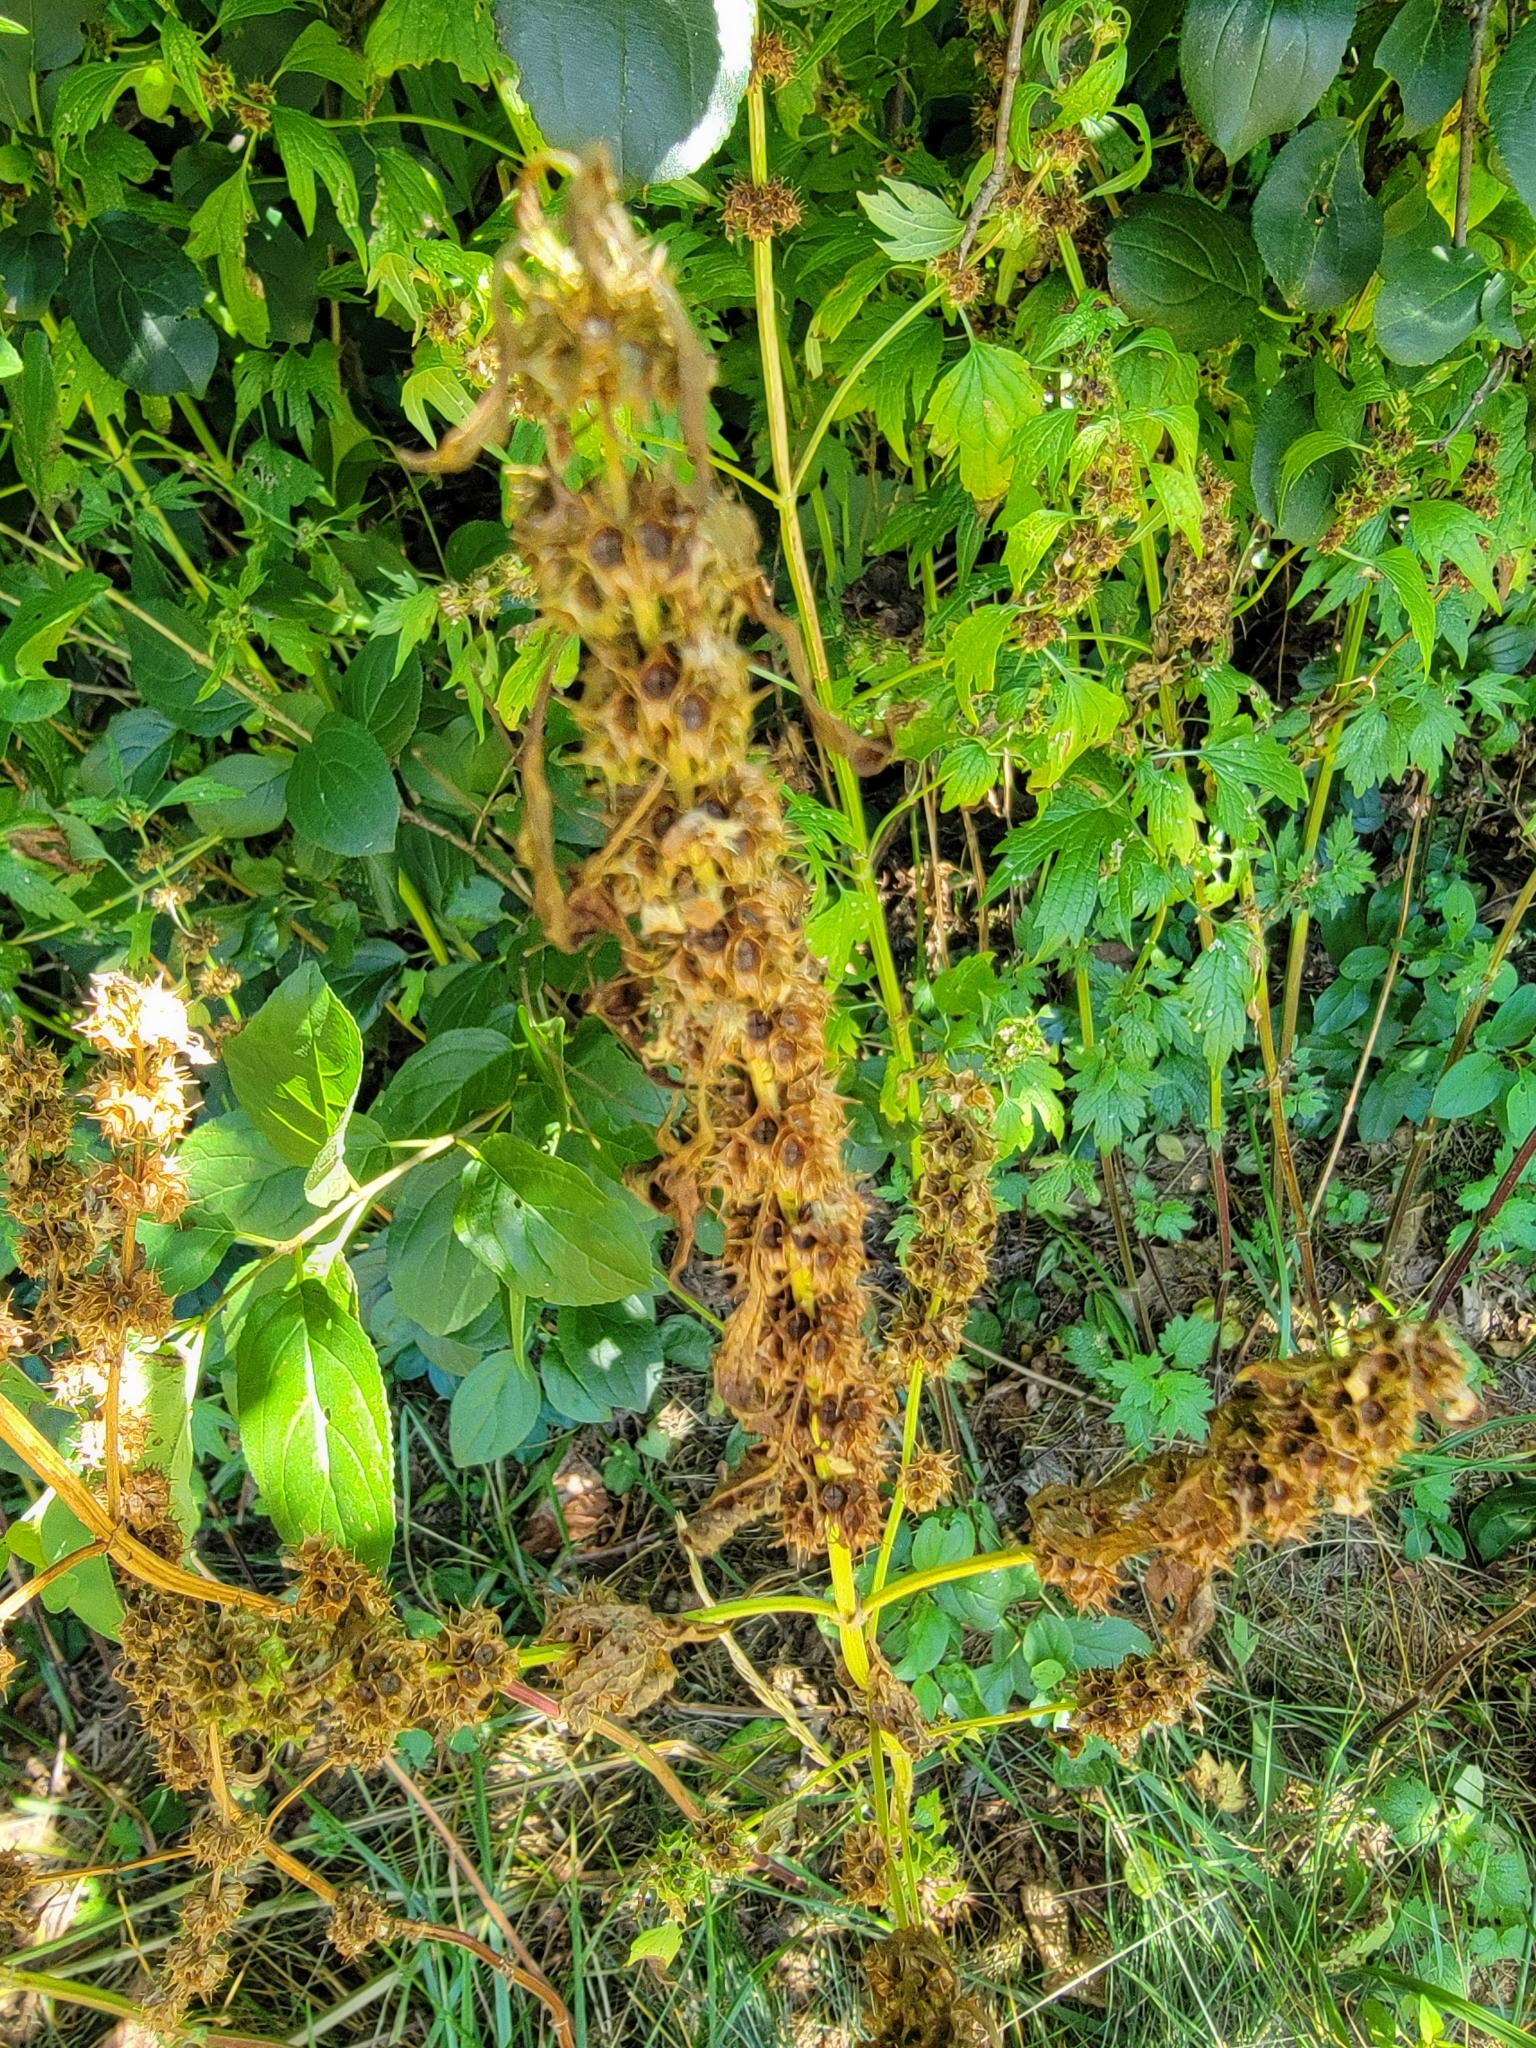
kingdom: Plantae
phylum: Tracheophyta
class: Magnoliopsida
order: Lamiales
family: Lamiaceae
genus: Leonurus
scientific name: Leonurus cardiaca
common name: Motherwort
